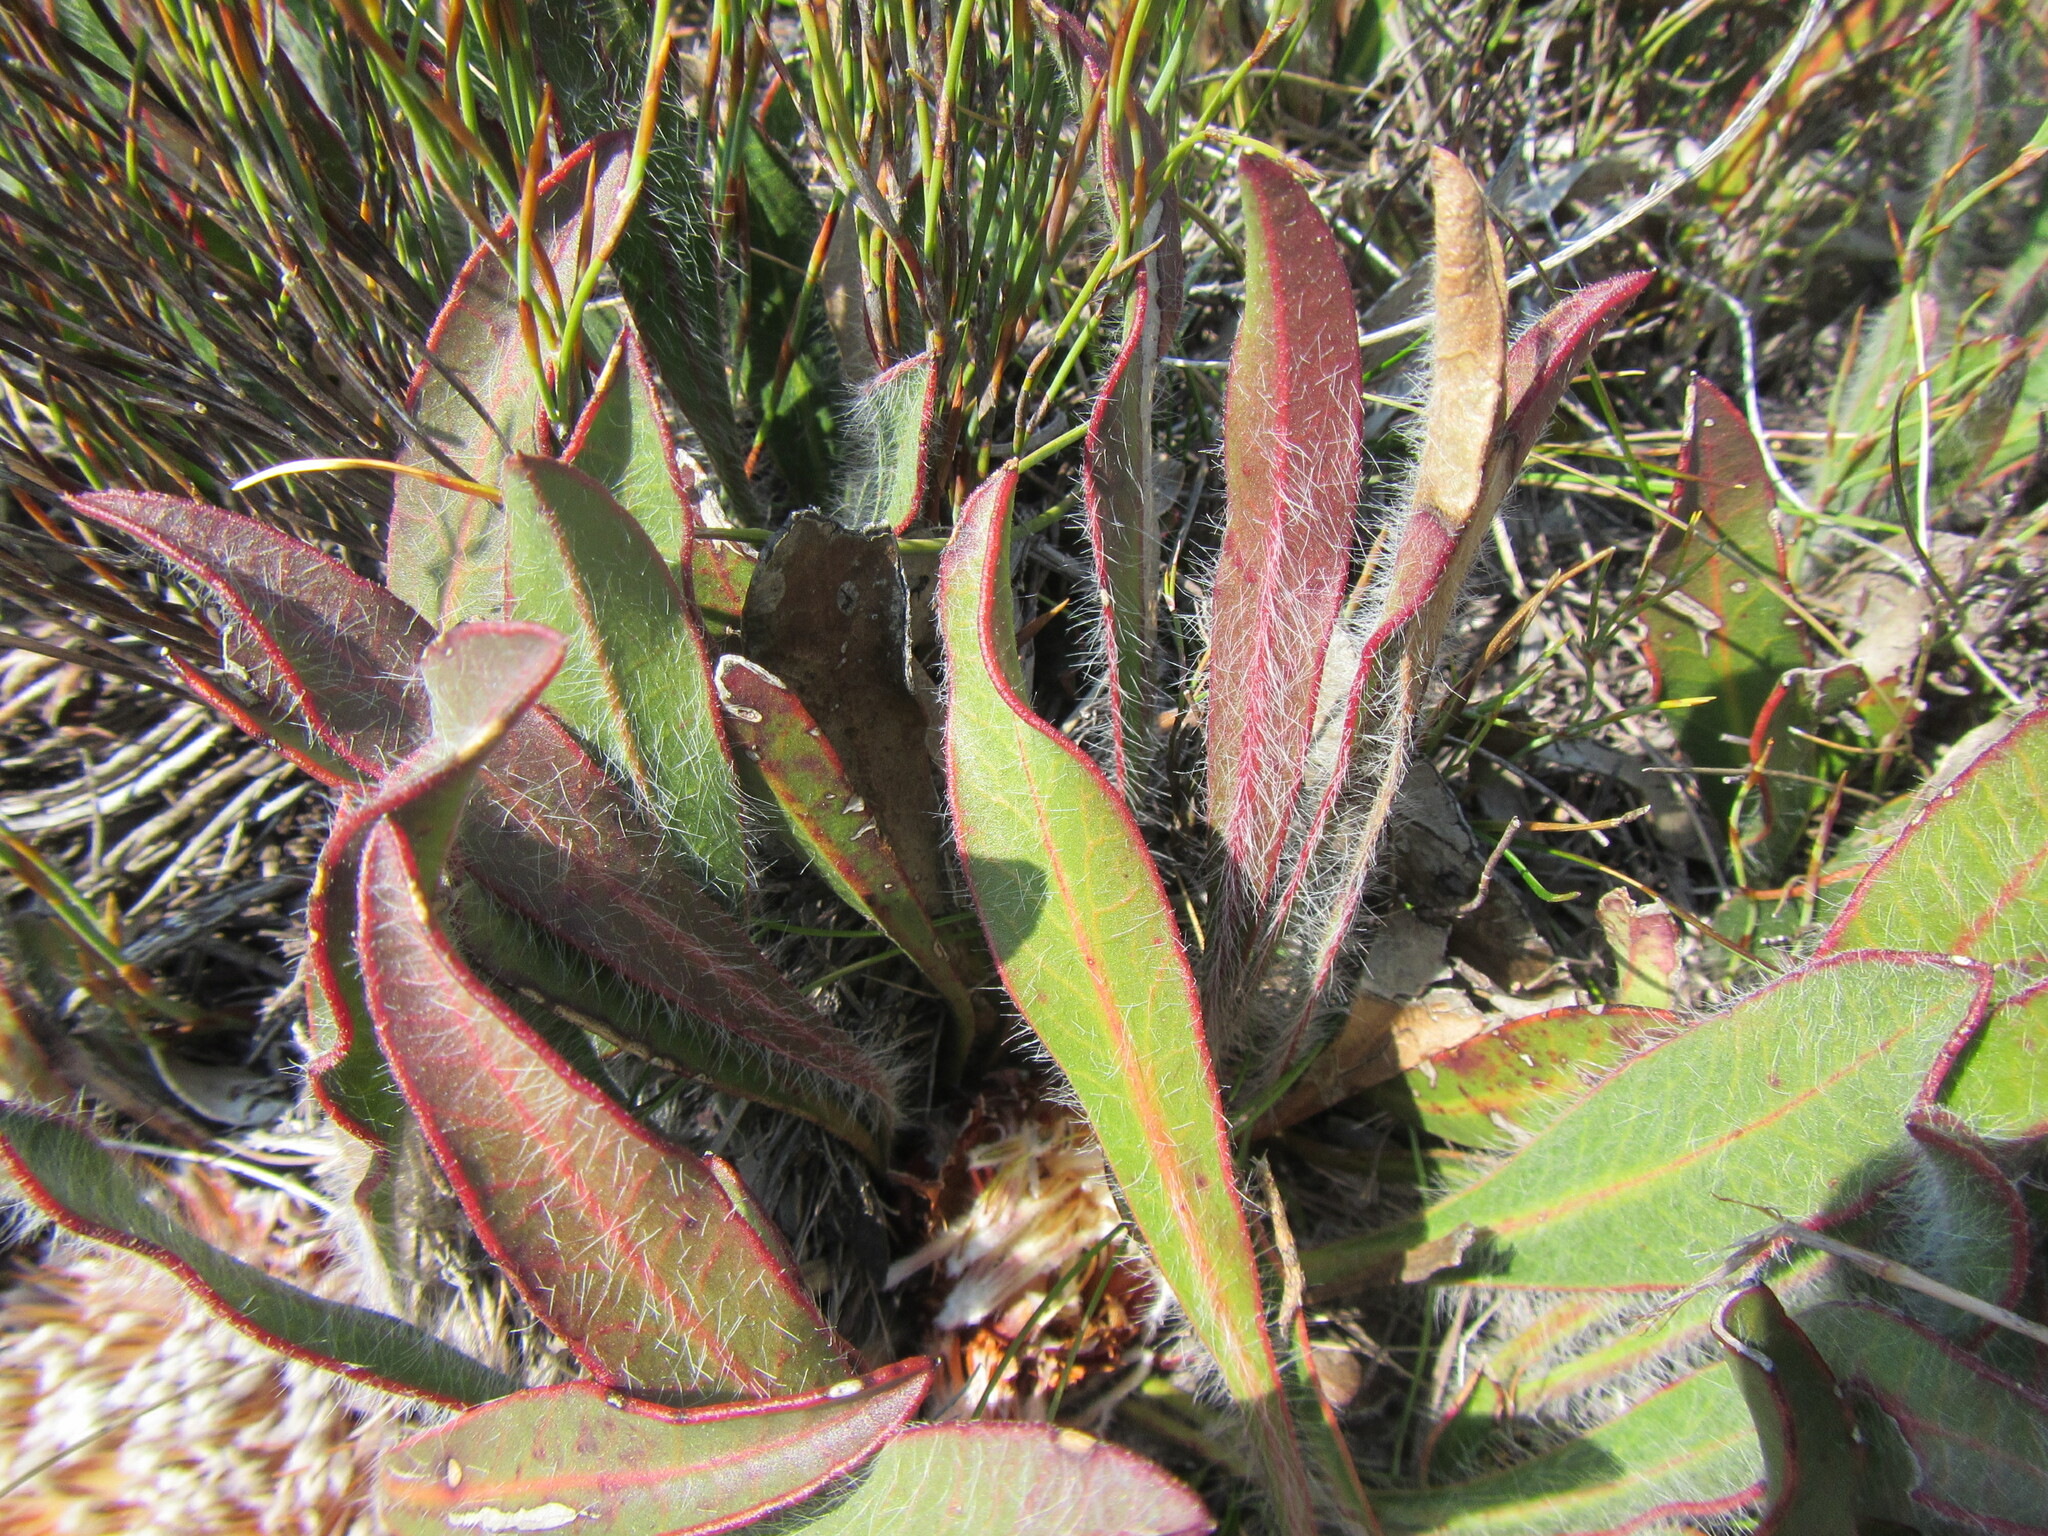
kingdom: Plantae
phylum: Tracheophyta
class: Magnoliopsida
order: Proteales
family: Proteaceae
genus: Protea
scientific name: Protea scabriuscula
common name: Hoary sugarbush
